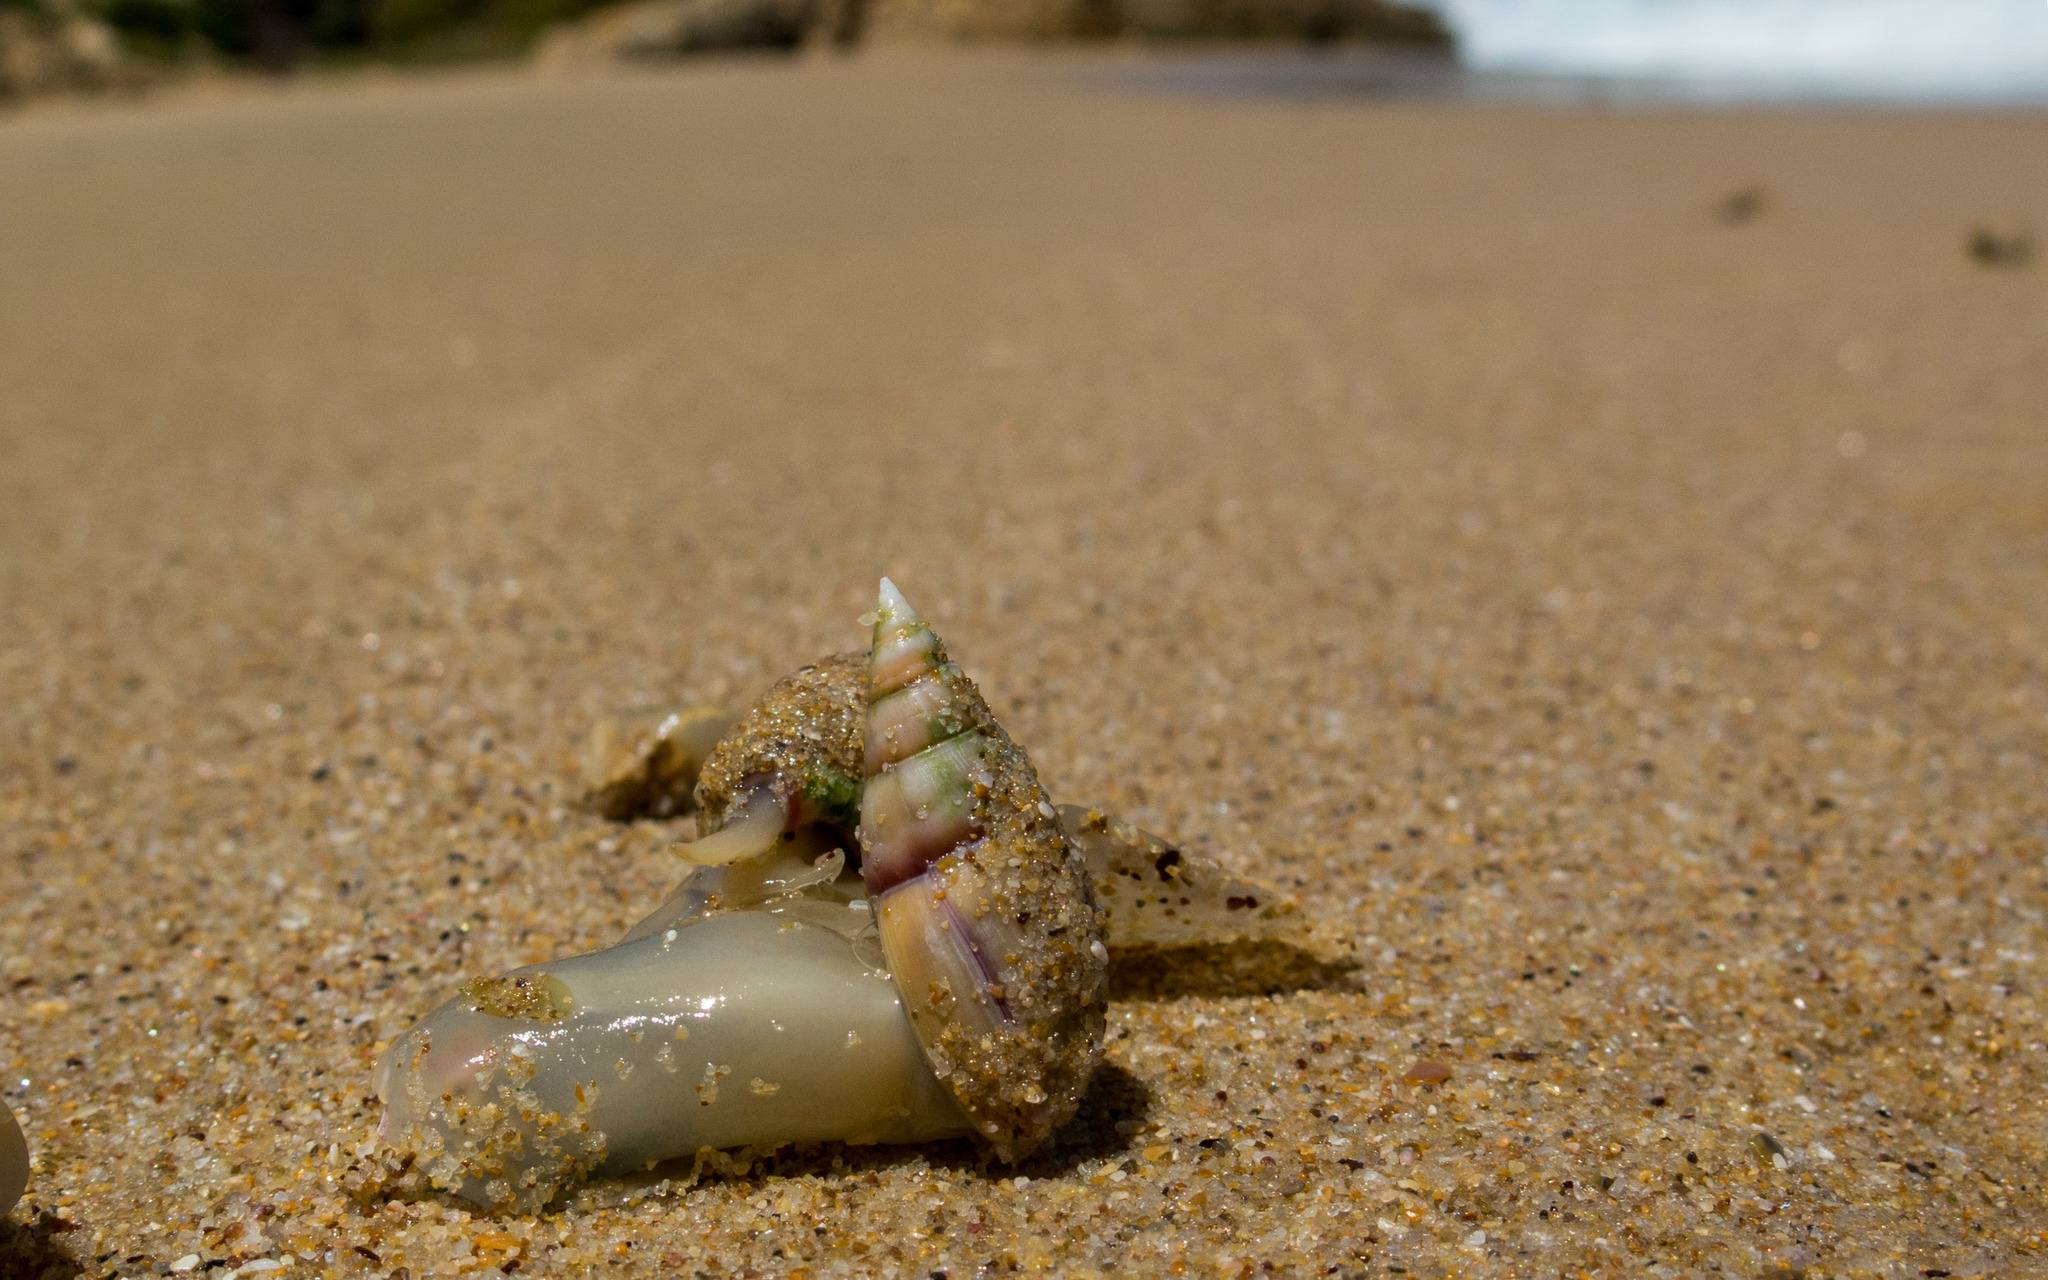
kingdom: Animalia
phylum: Mollusca
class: Gastropoda
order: Neogastropoda
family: Nassariidae
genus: Bullia
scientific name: Bullia rhodostoma
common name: Smooth plough shell
